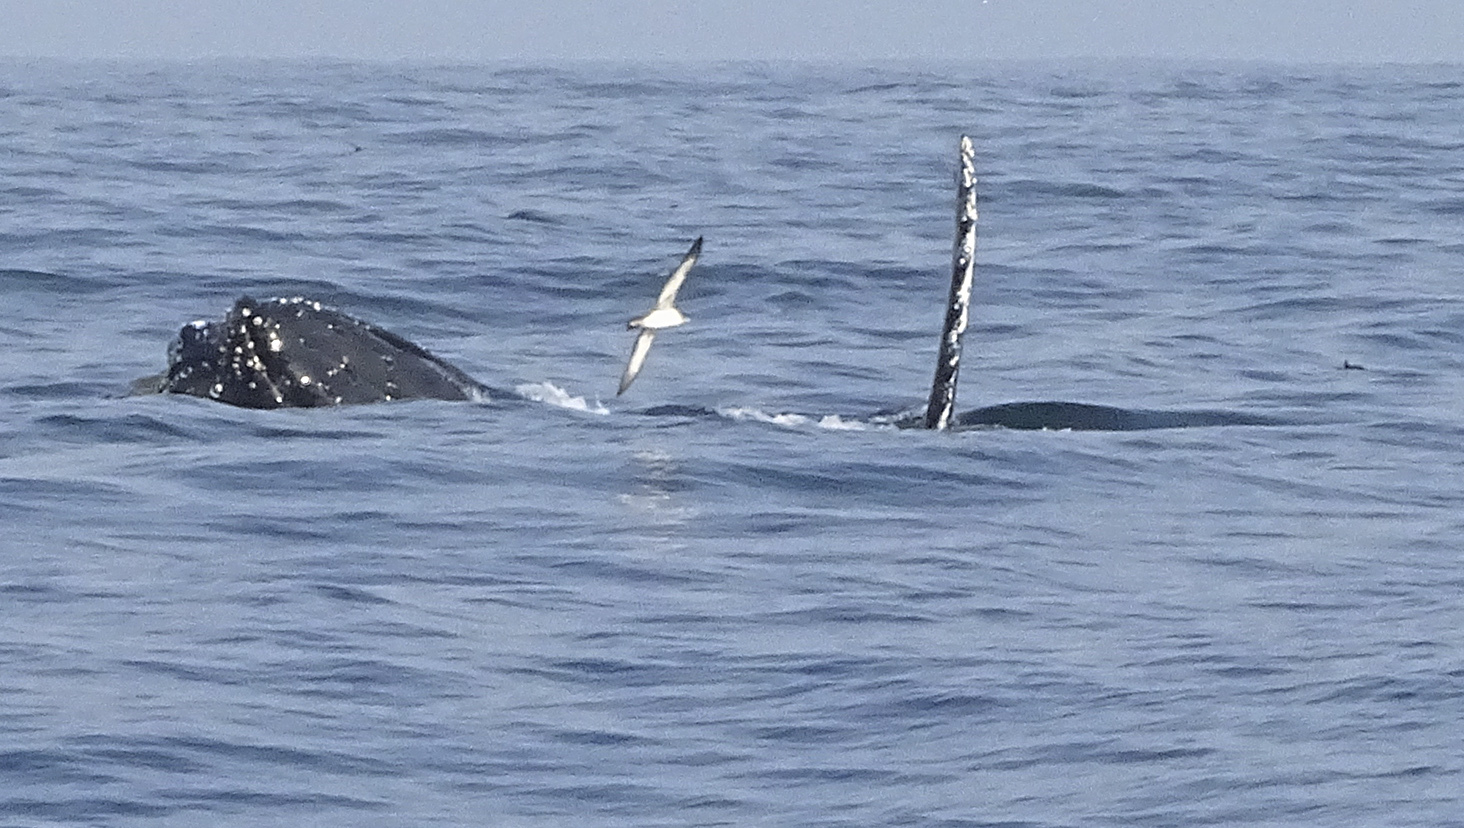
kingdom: Animalia
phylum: Chordata
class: Mammalia
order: Cetacea
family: Balaenopteridae
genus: Megaptera
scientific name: Megaptera novaeangliae
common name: Humpback whale
